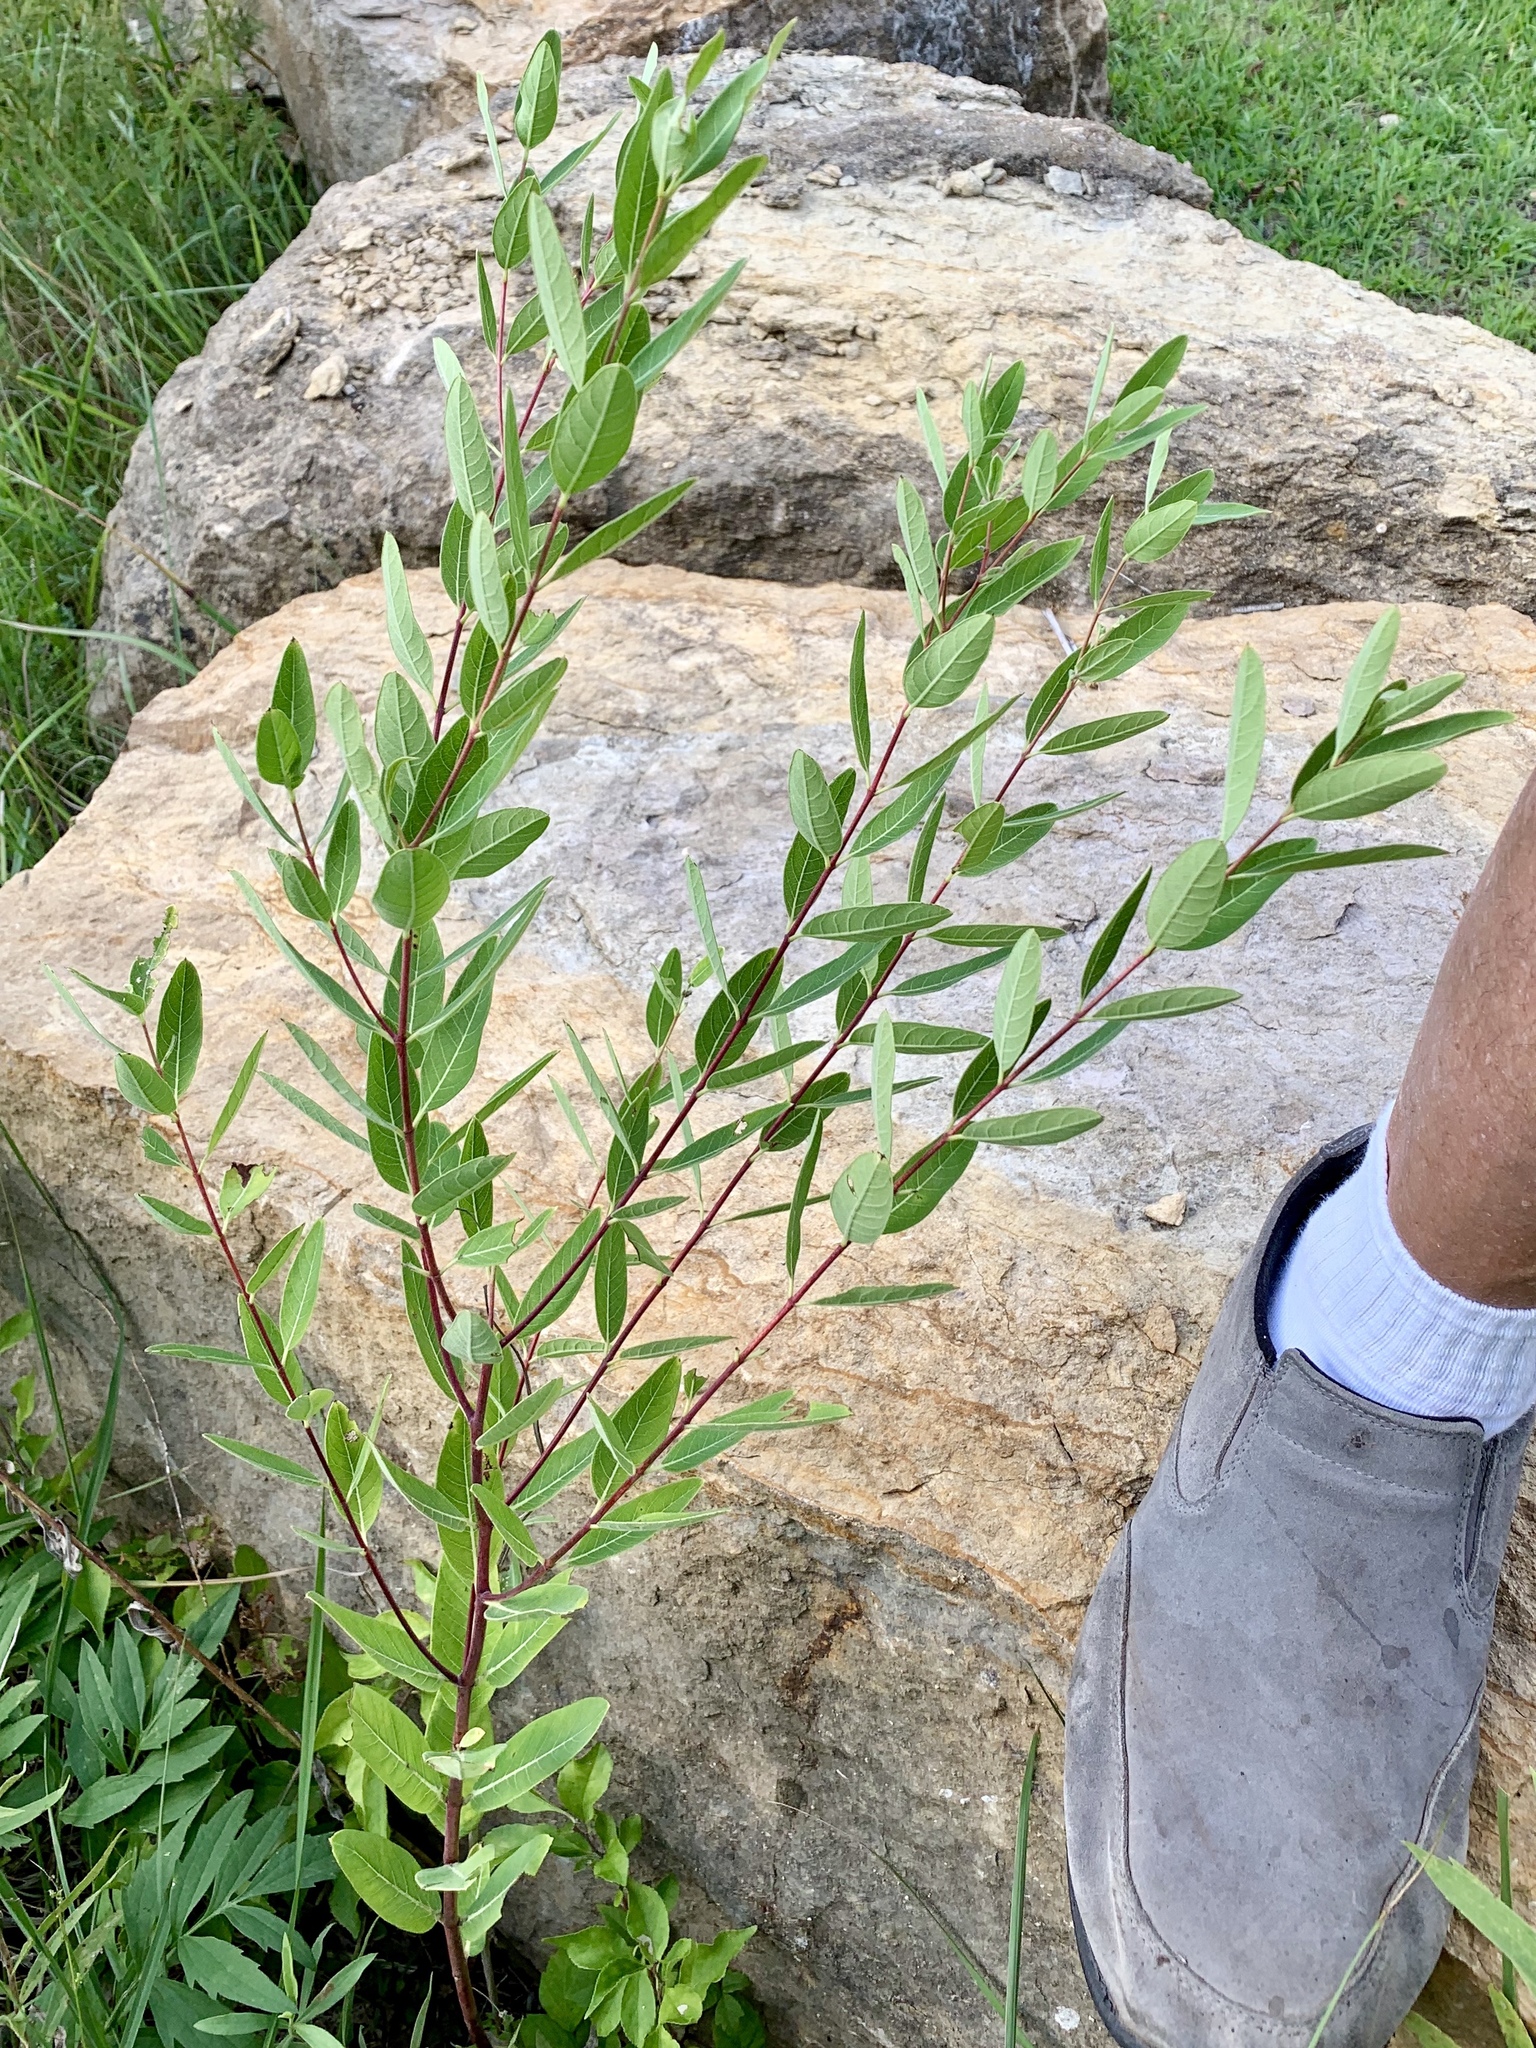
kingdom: Plantae
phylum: Tracheophyta
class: Magnoliopsida
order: Gentianales
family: Apocynaceae
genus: Apocynum
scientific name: Apocynum cannabinum
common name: Hemp dogbane
